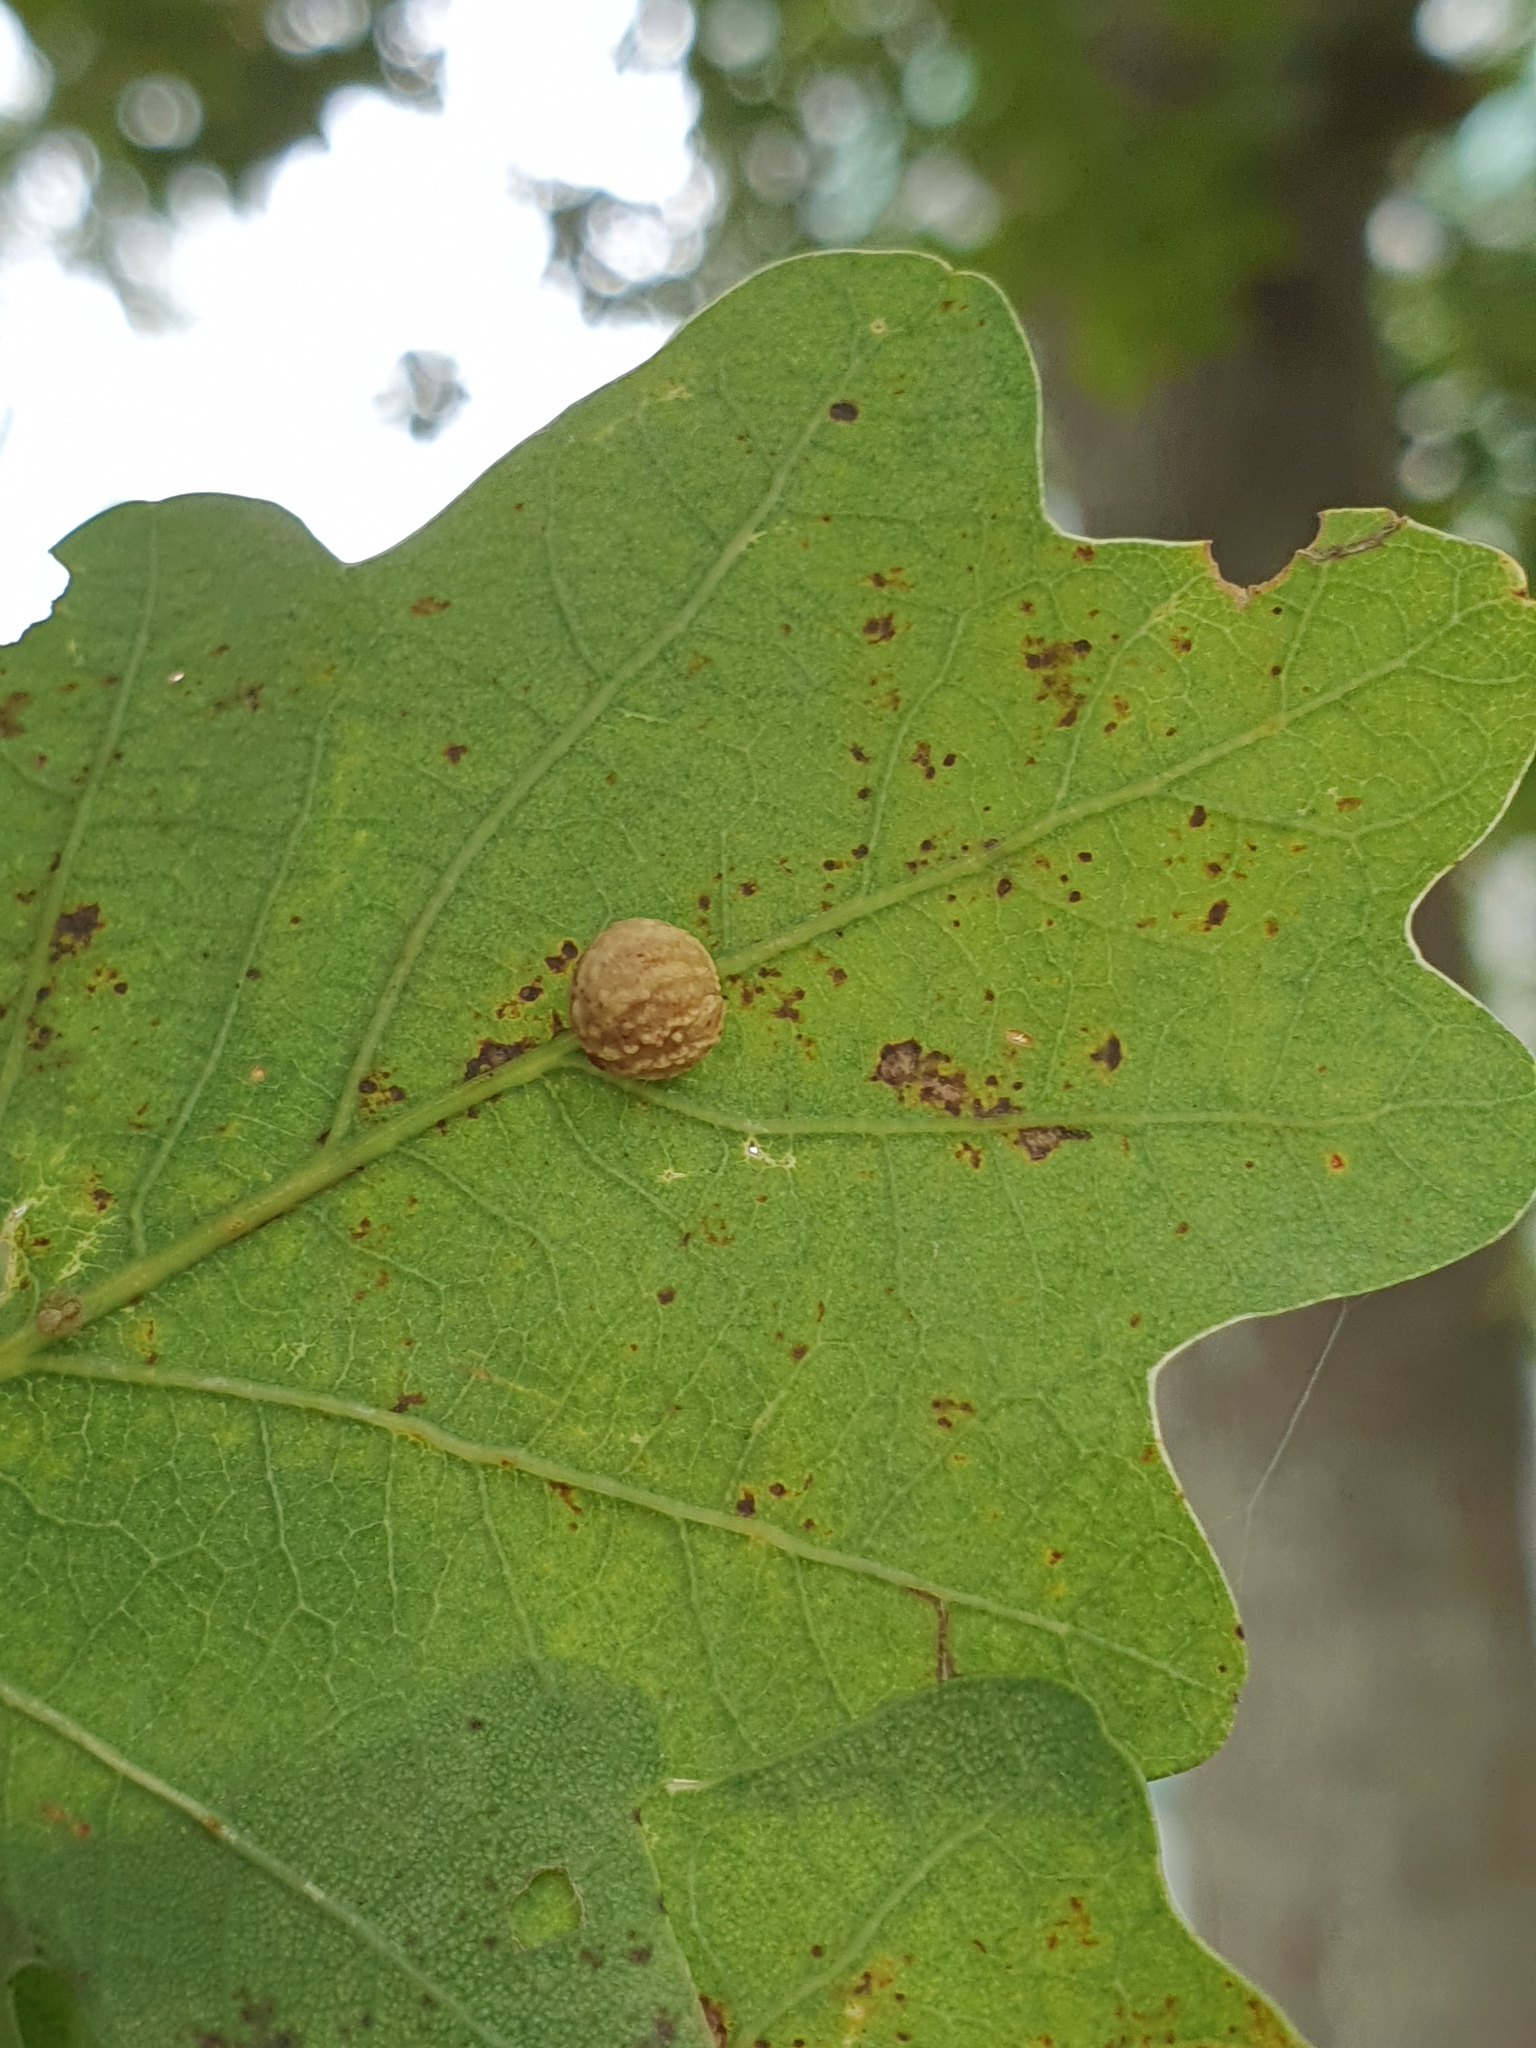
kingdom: Animalia
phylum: Arthropoda
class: Insecta
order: Hymenoptera
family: Cynipidae
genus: Cynips
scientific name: Cynips longiventris
